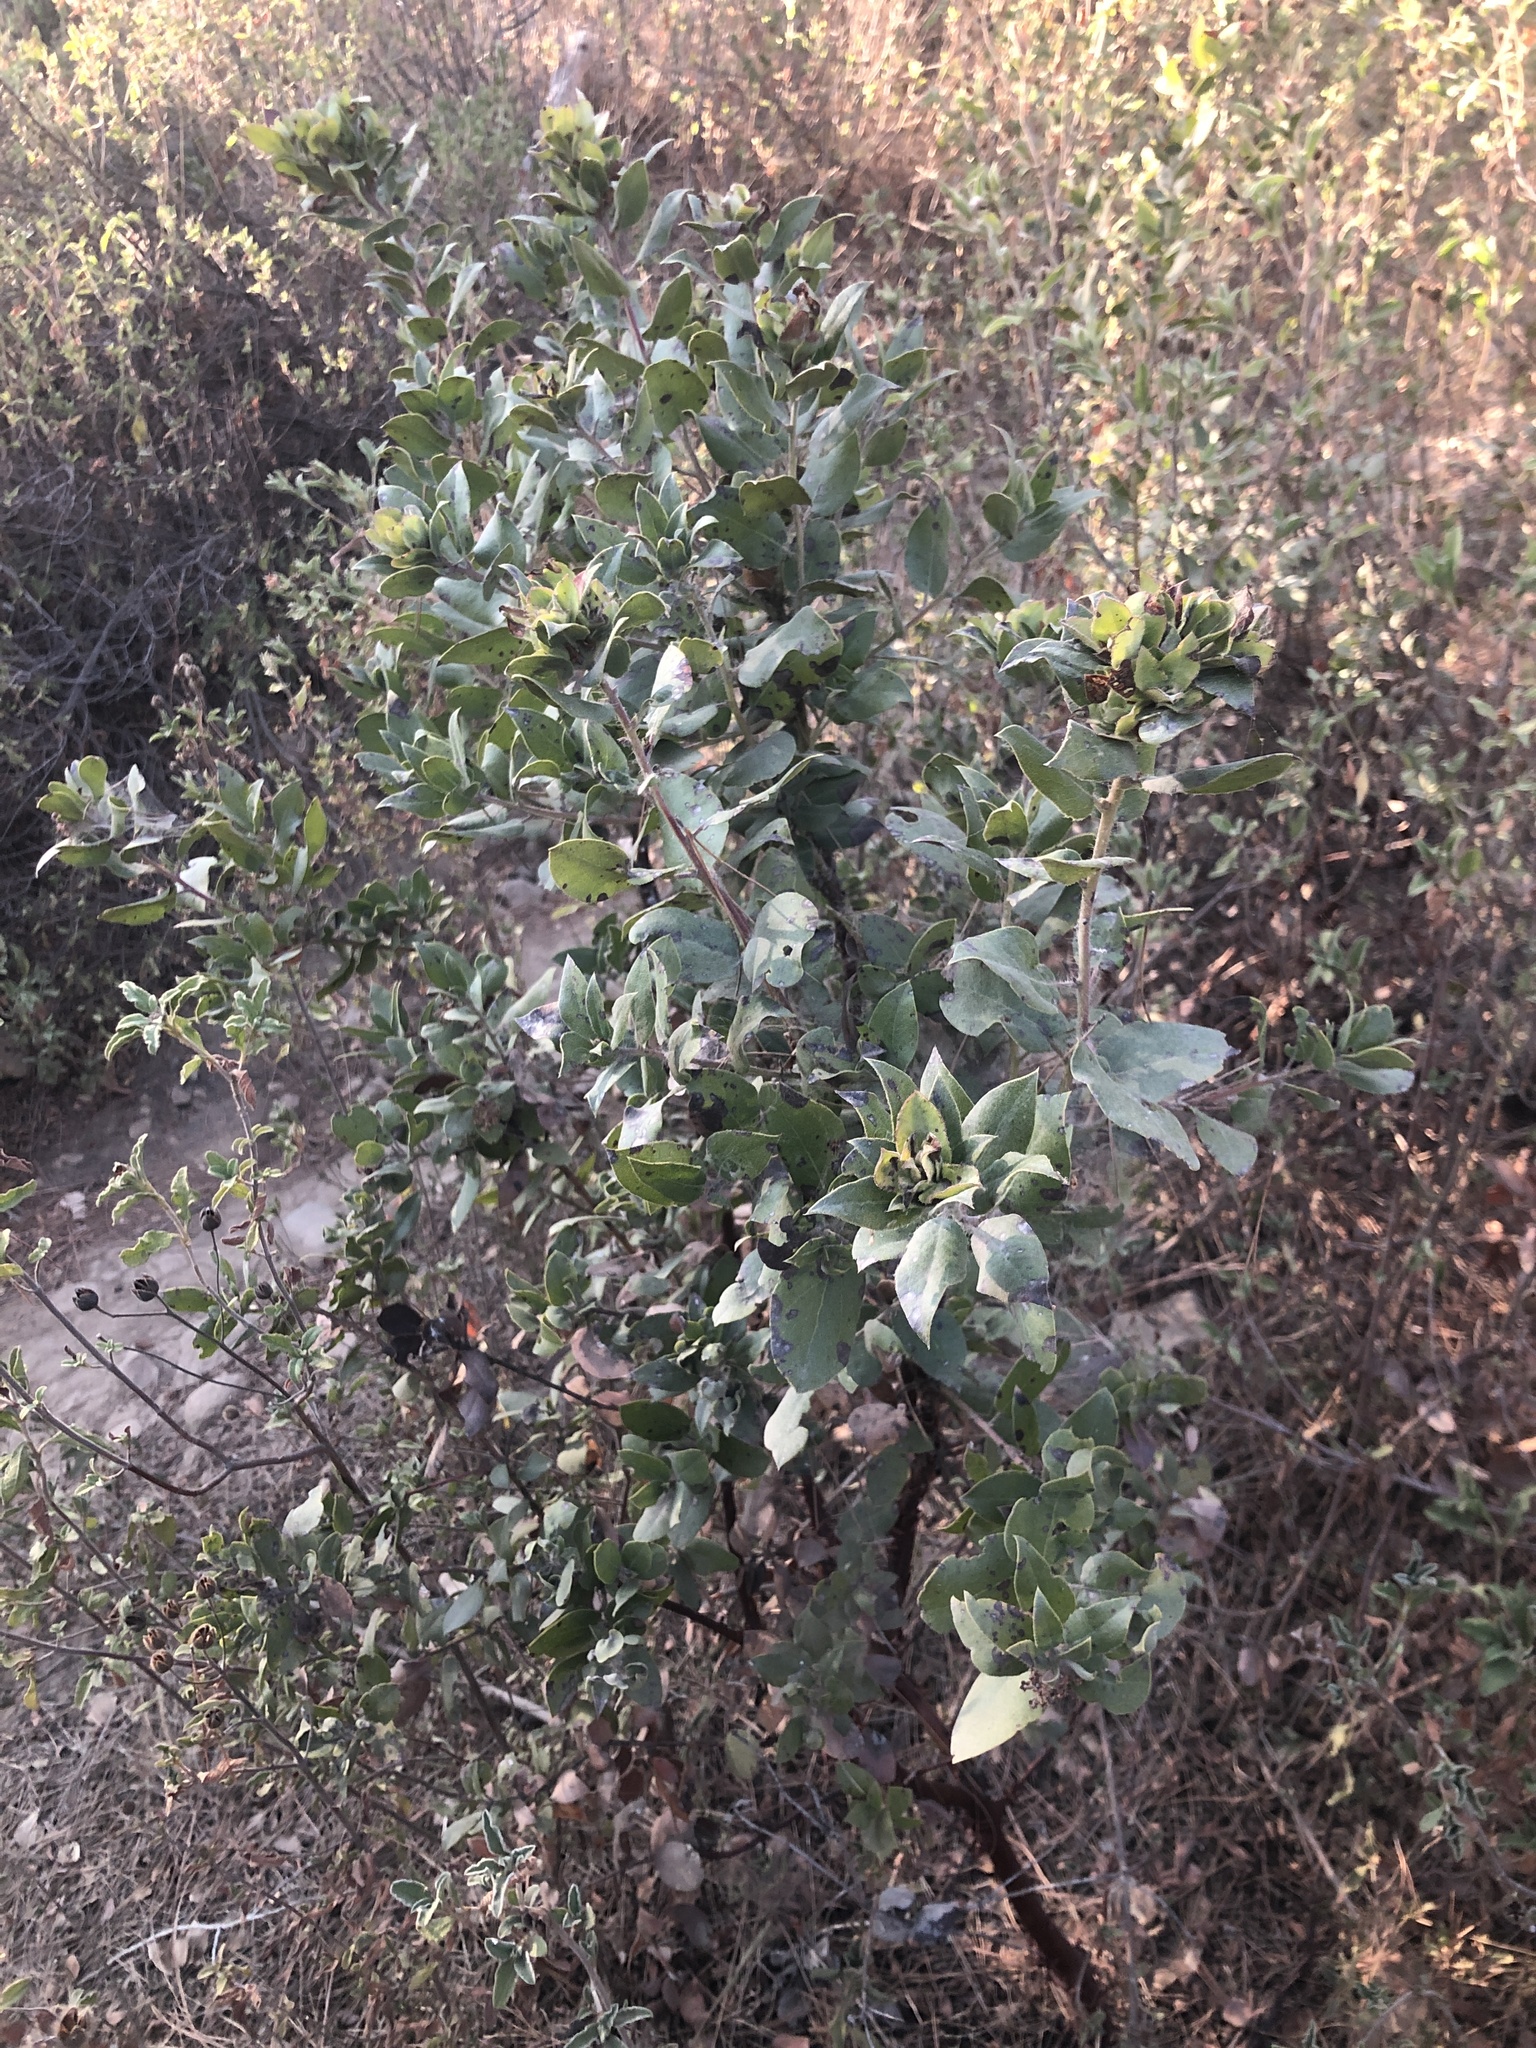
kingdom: Plantae
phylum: Tracheophyta
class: Magnoliopsida
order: Ericales
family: Ericaceae
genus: Arctostaphylos
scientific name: Arctostaphylos crustacea
